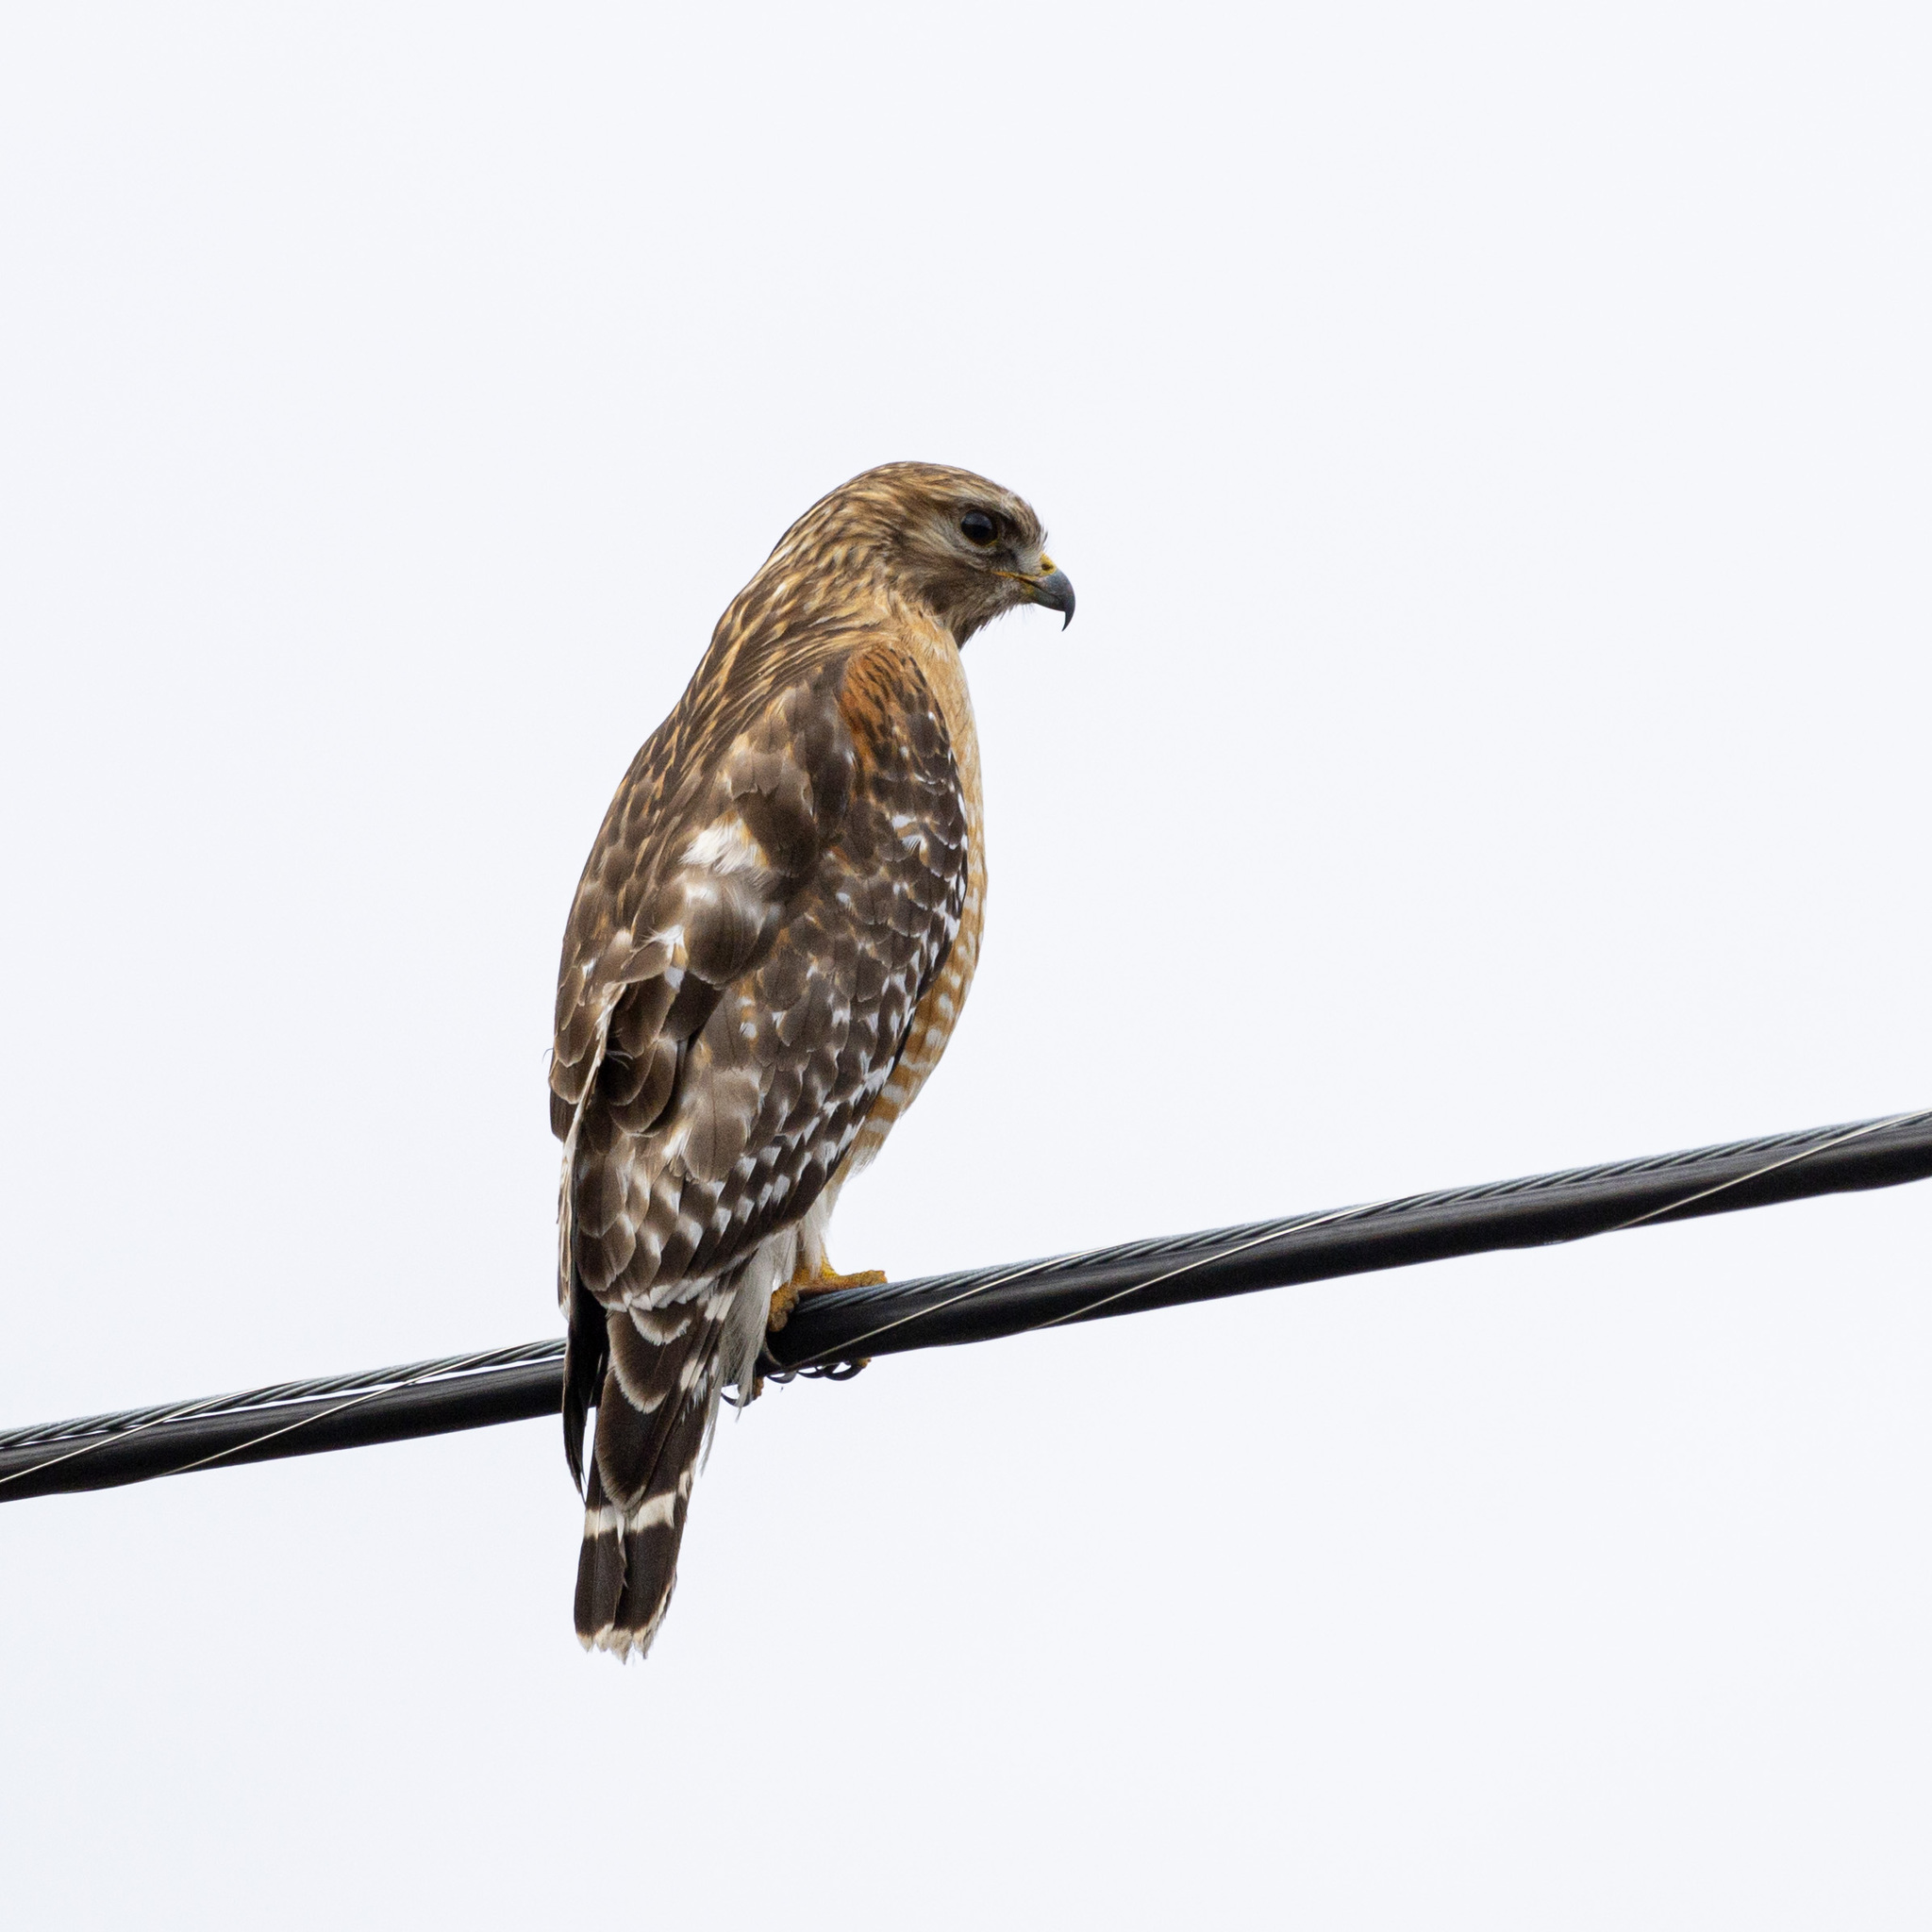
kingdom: Animalia
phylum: Chordata
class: Aves
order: Accipitriformes
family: Accipitridae
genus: Buteo
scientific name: Buteo lineatus
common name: Red-shouldered hawk
